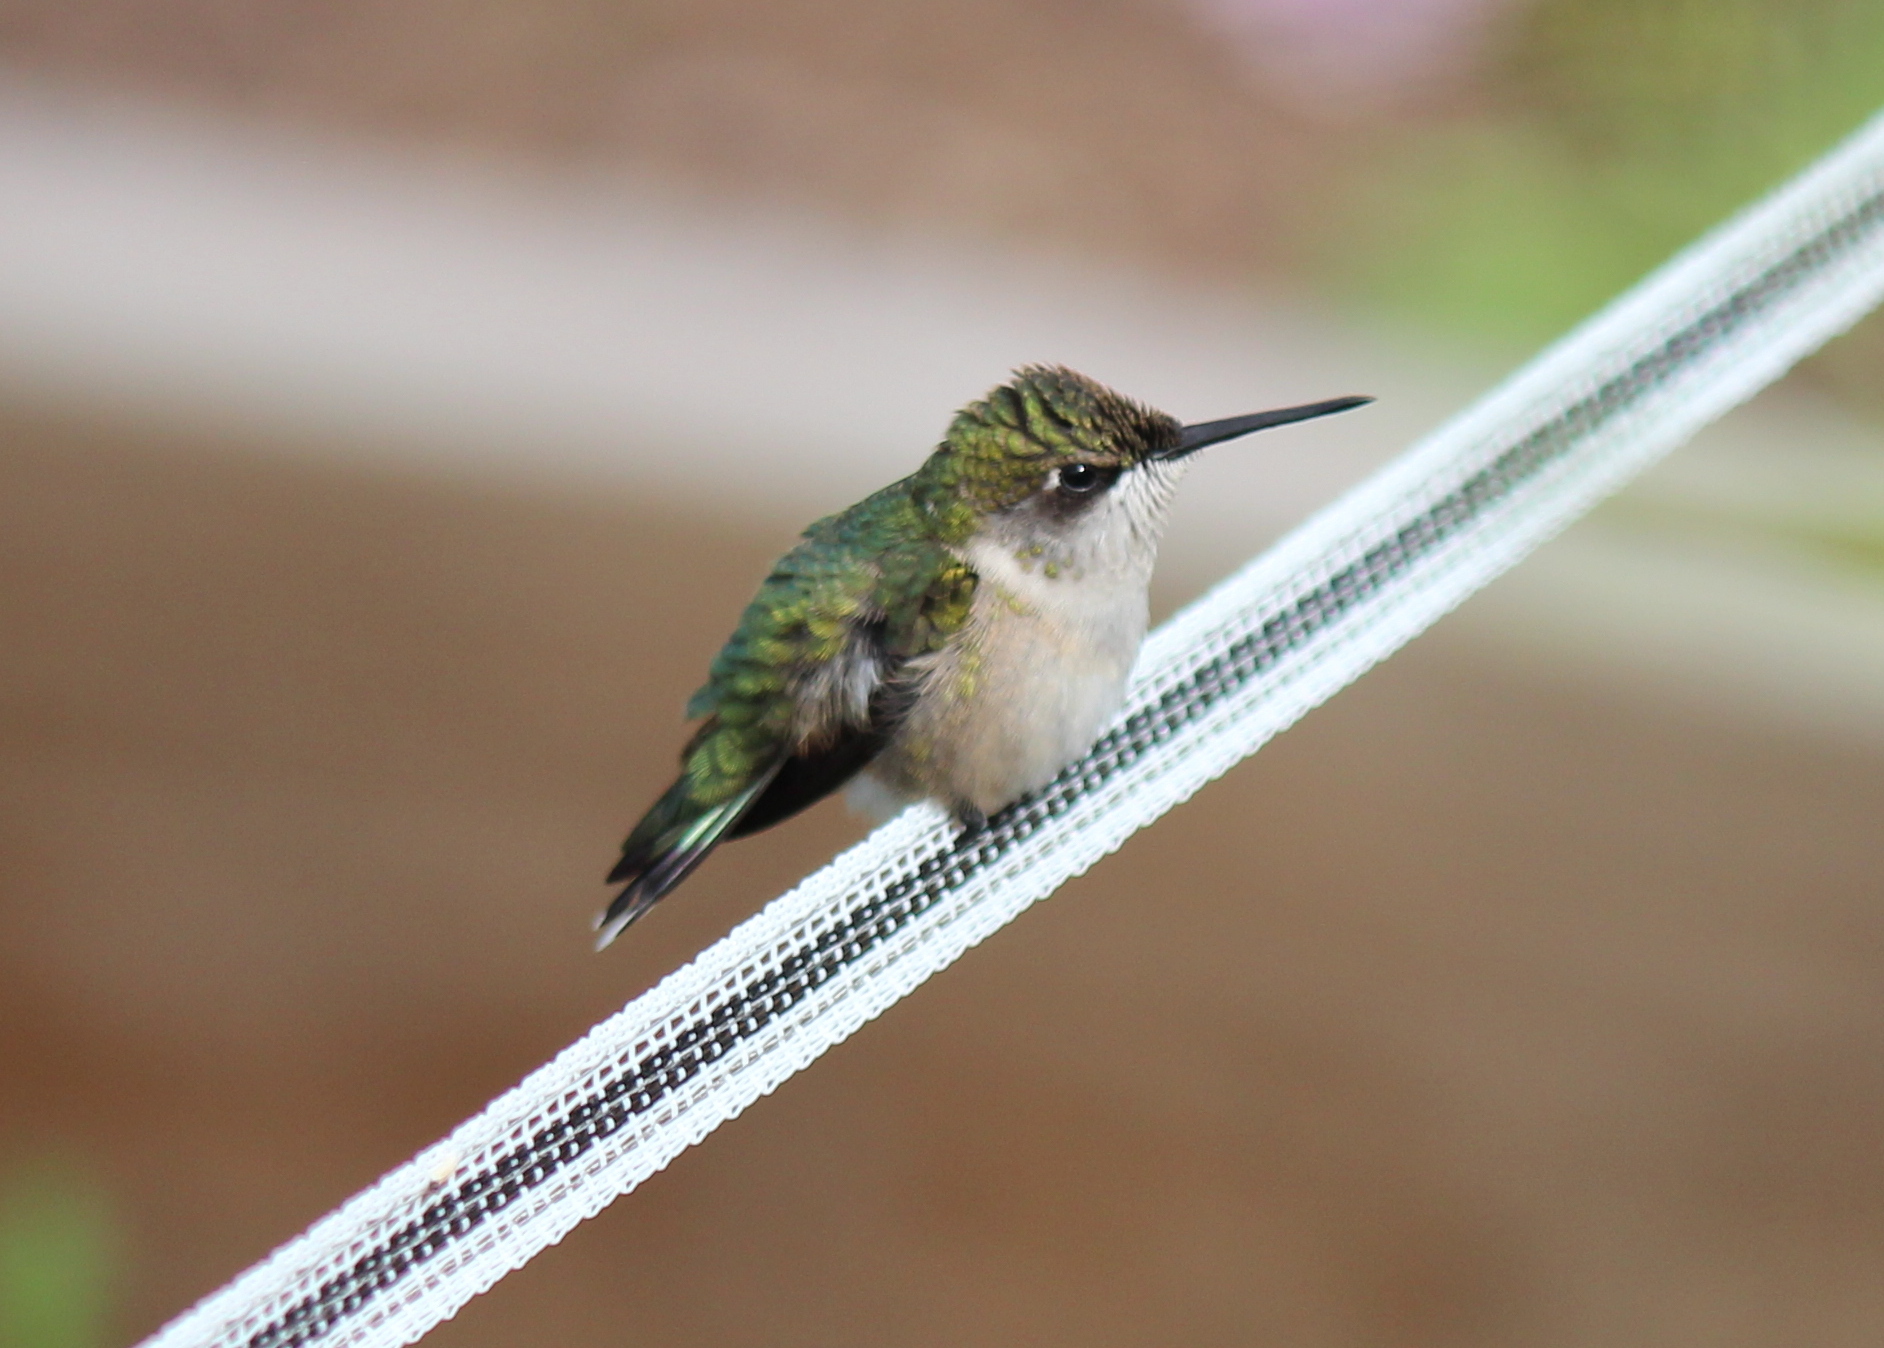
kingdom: Animalia
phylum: Chordata
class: Aves
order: Apodiformes
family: Trochilidae
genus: Archilochus
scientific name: Archilochus colubris
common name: Ruby-throated hummingbird
